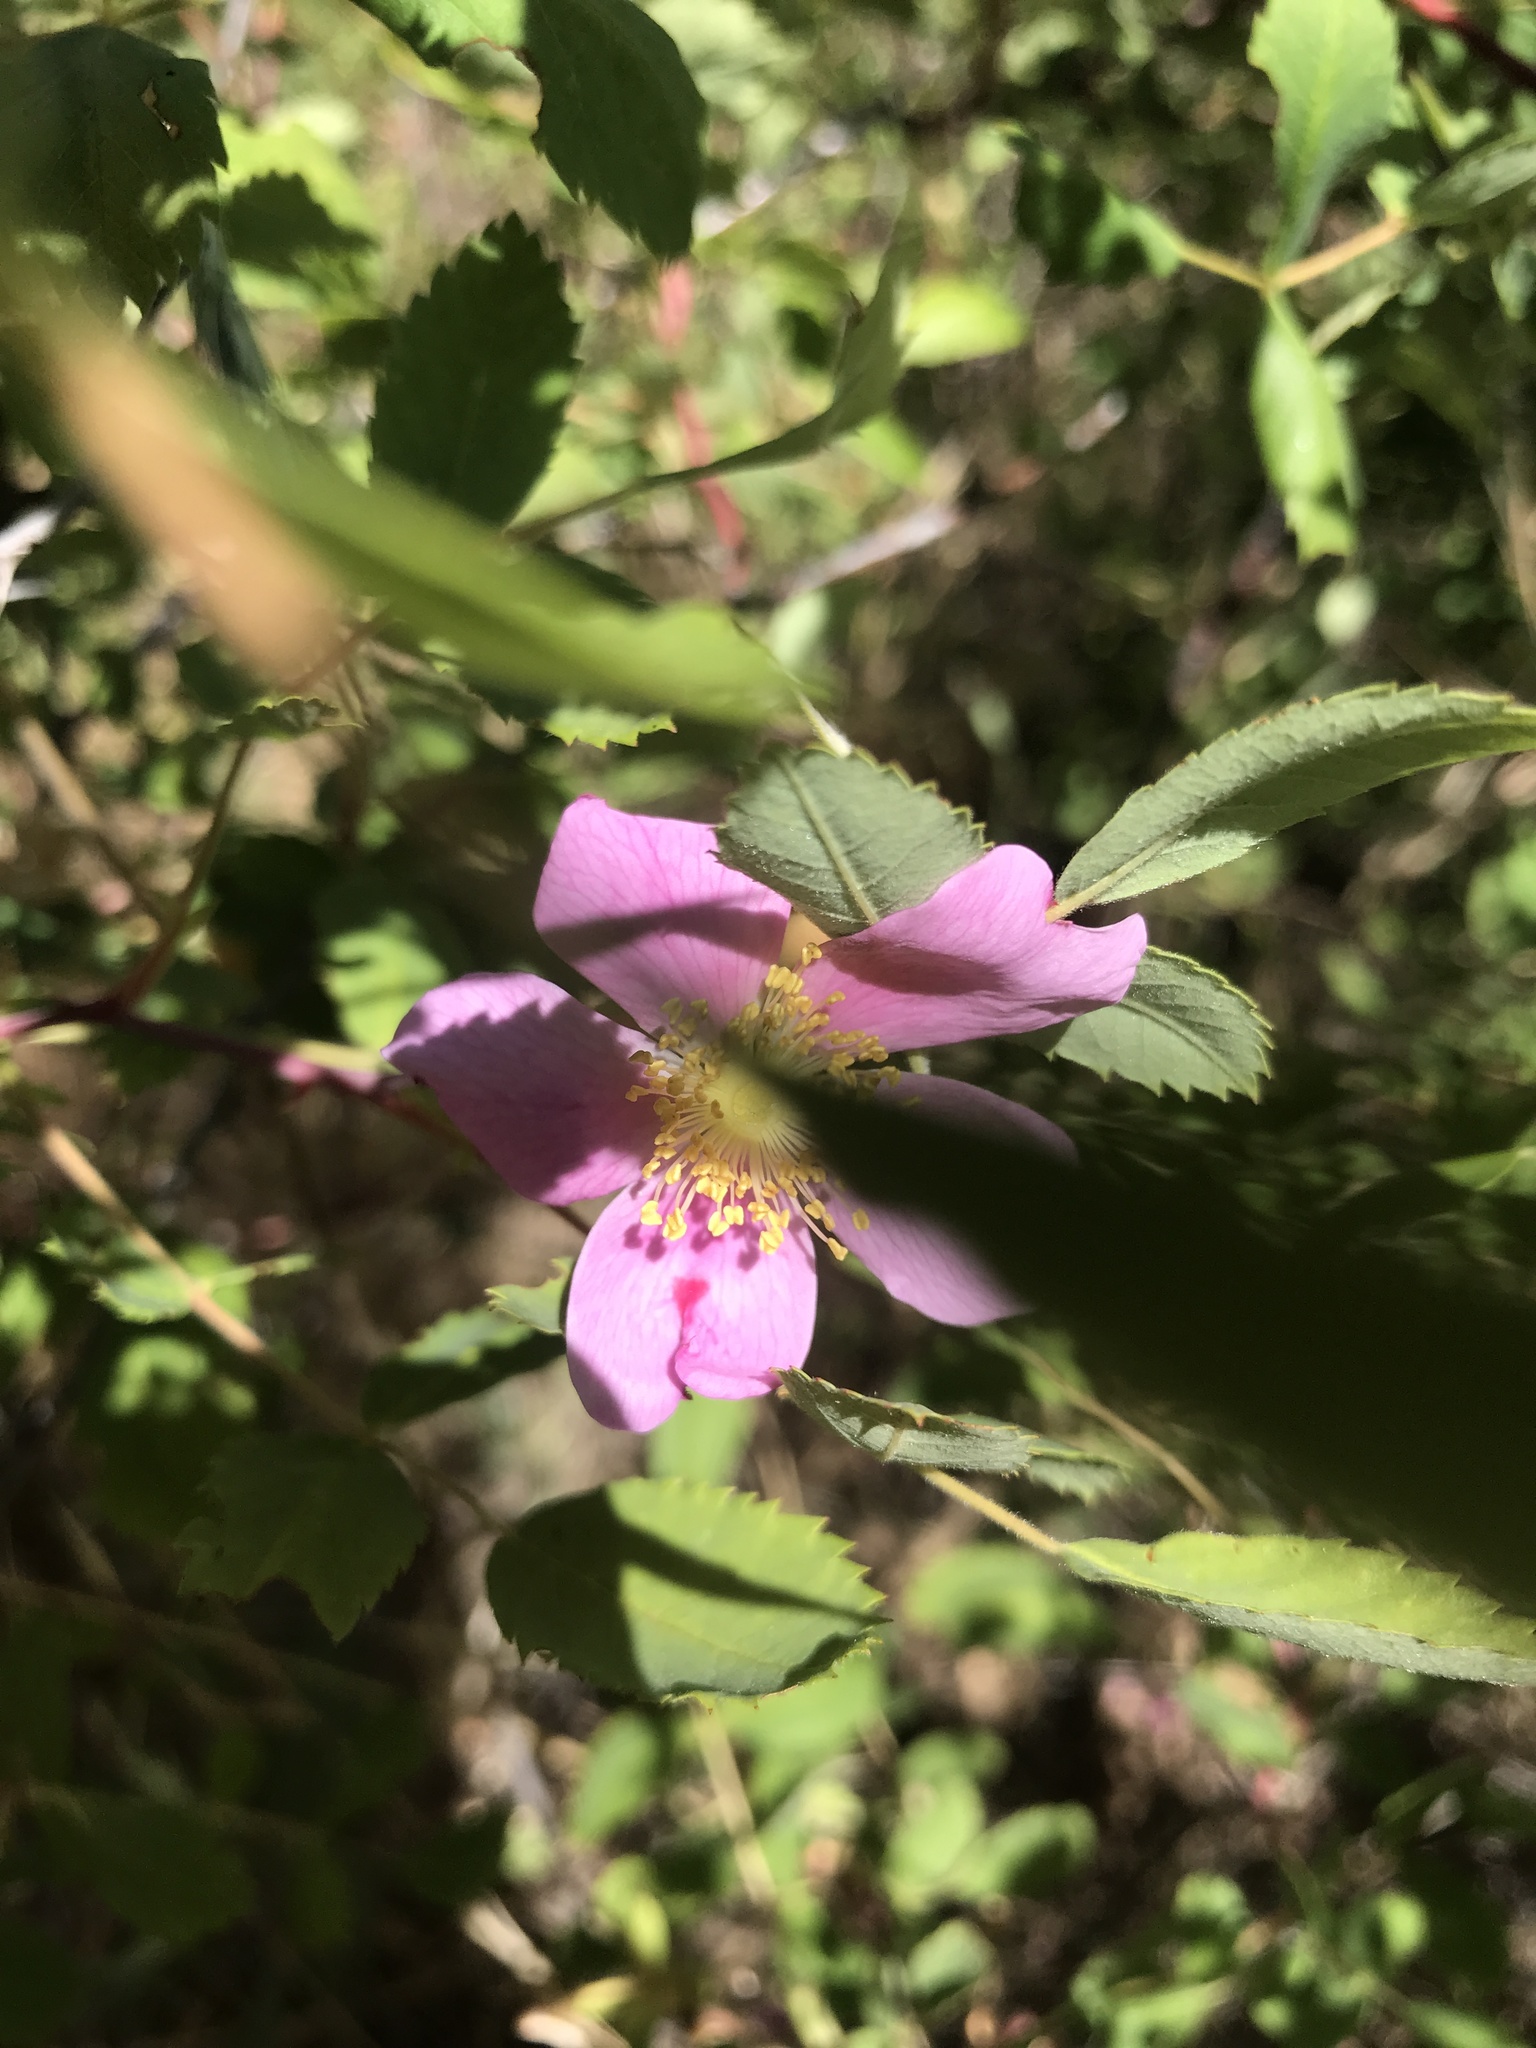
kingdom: Plantae
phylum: Tracheophyta
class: Magnoliopsida
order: Rosales
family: Rosaceae
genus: Rosa
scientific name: Rosa californica
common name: California rose
